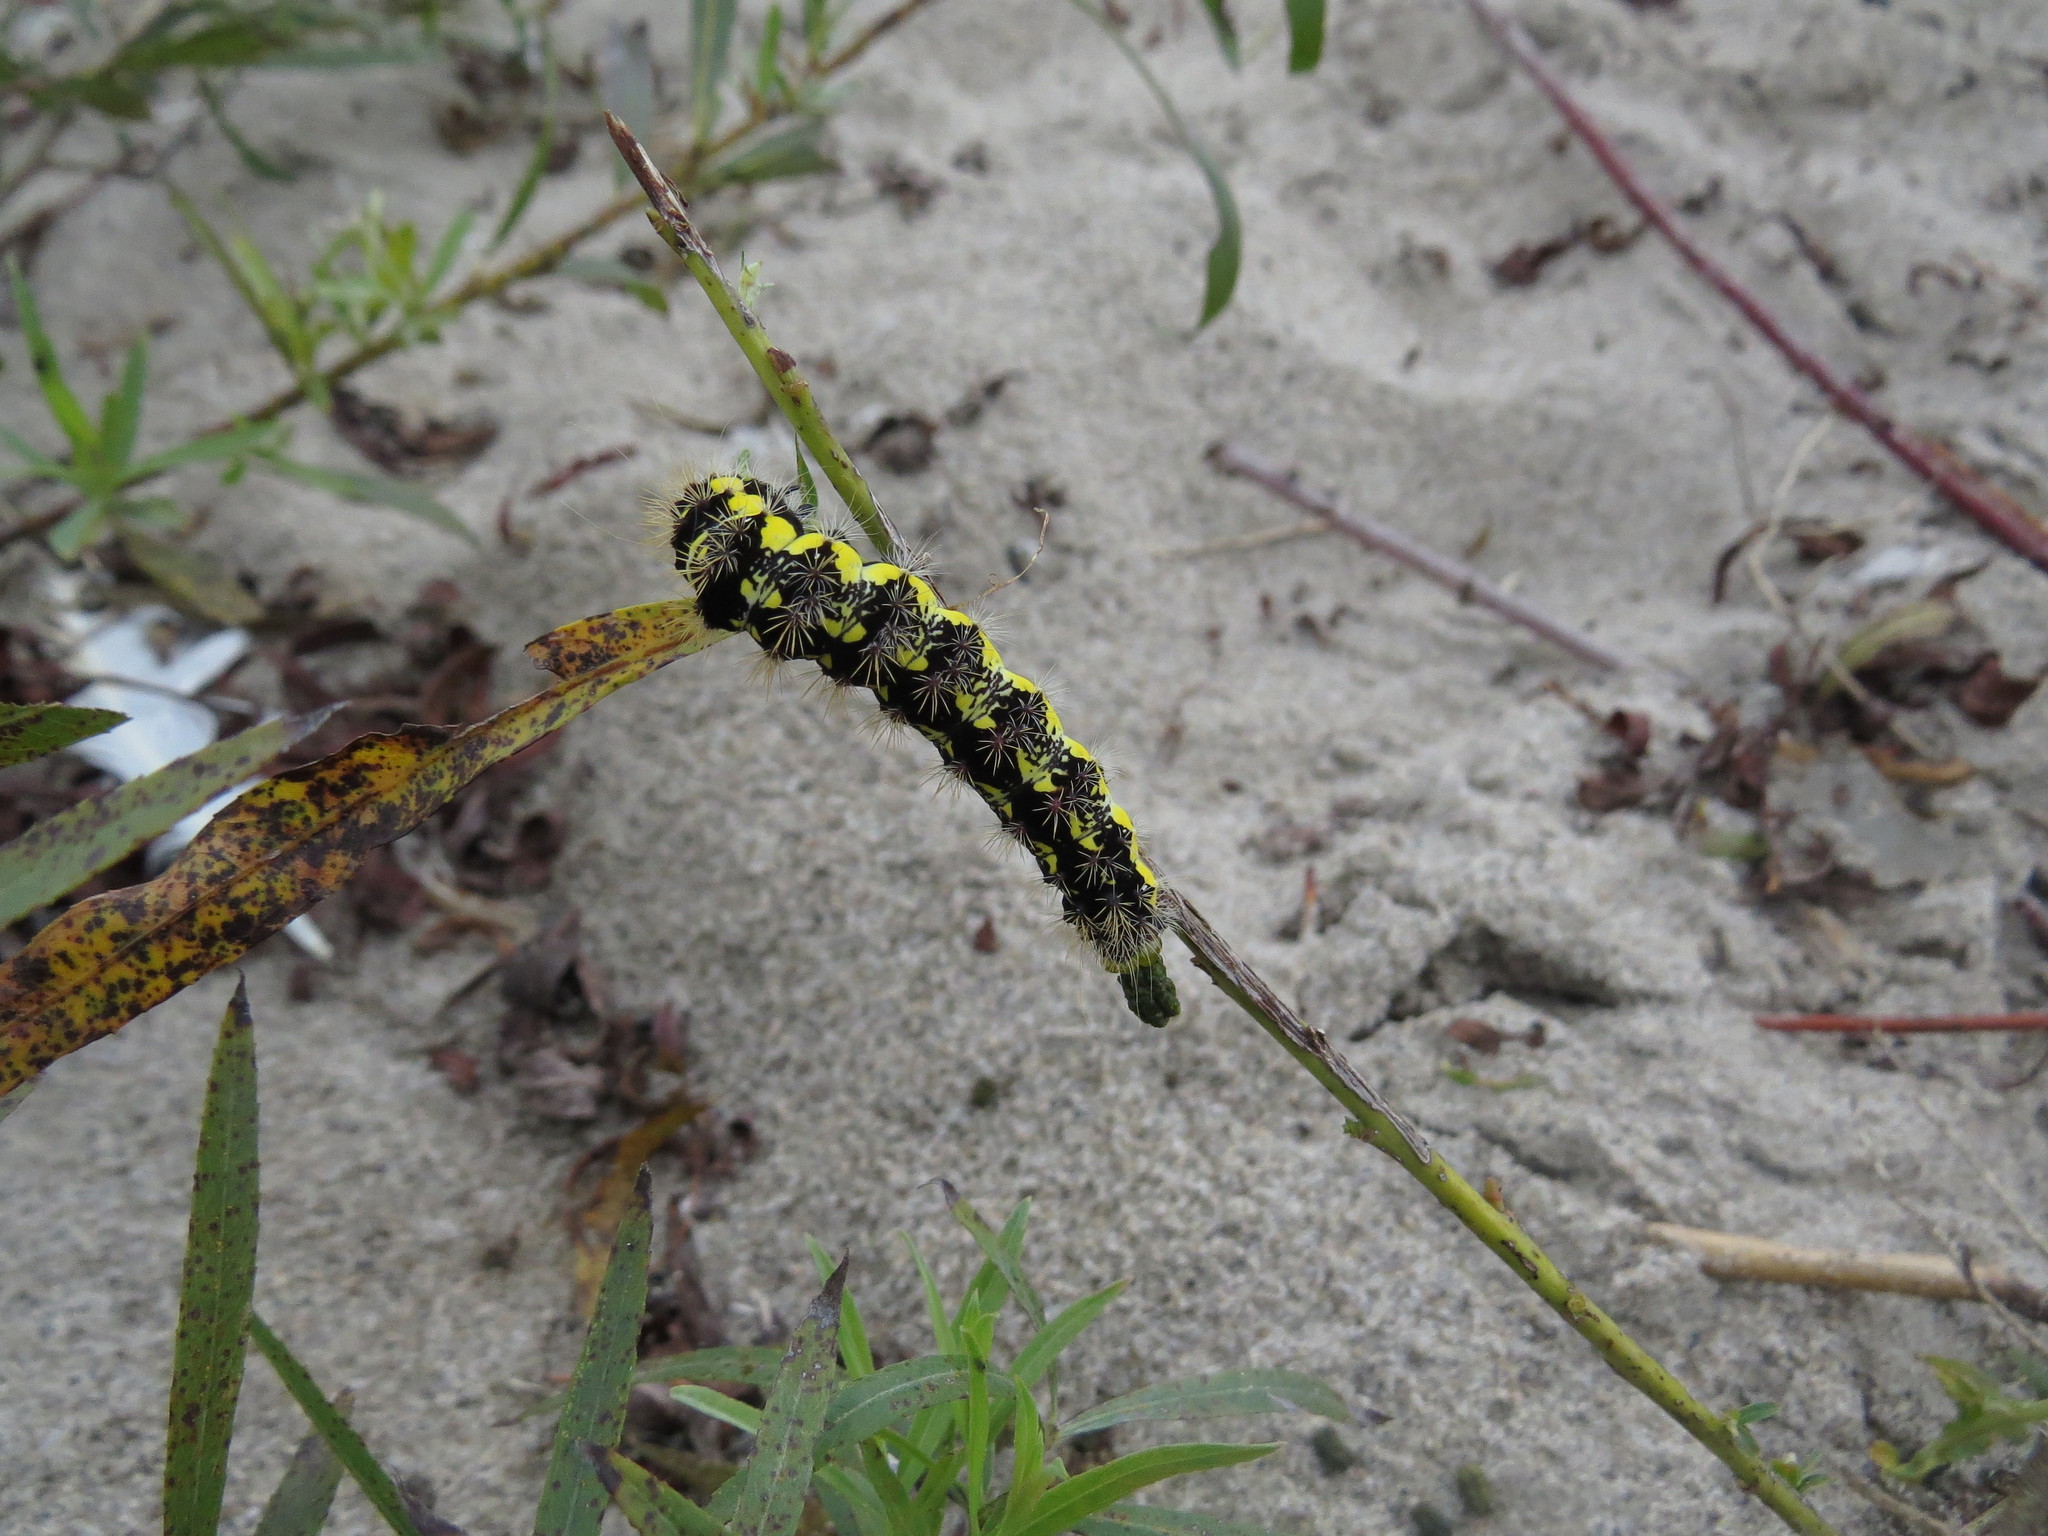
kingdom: Animalia
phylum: Arthropoda
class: Insecta
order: Lepidoptera
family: Noctuidae
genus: Acronicta
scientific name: Acronicta oblinita
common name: Smeared dagger
